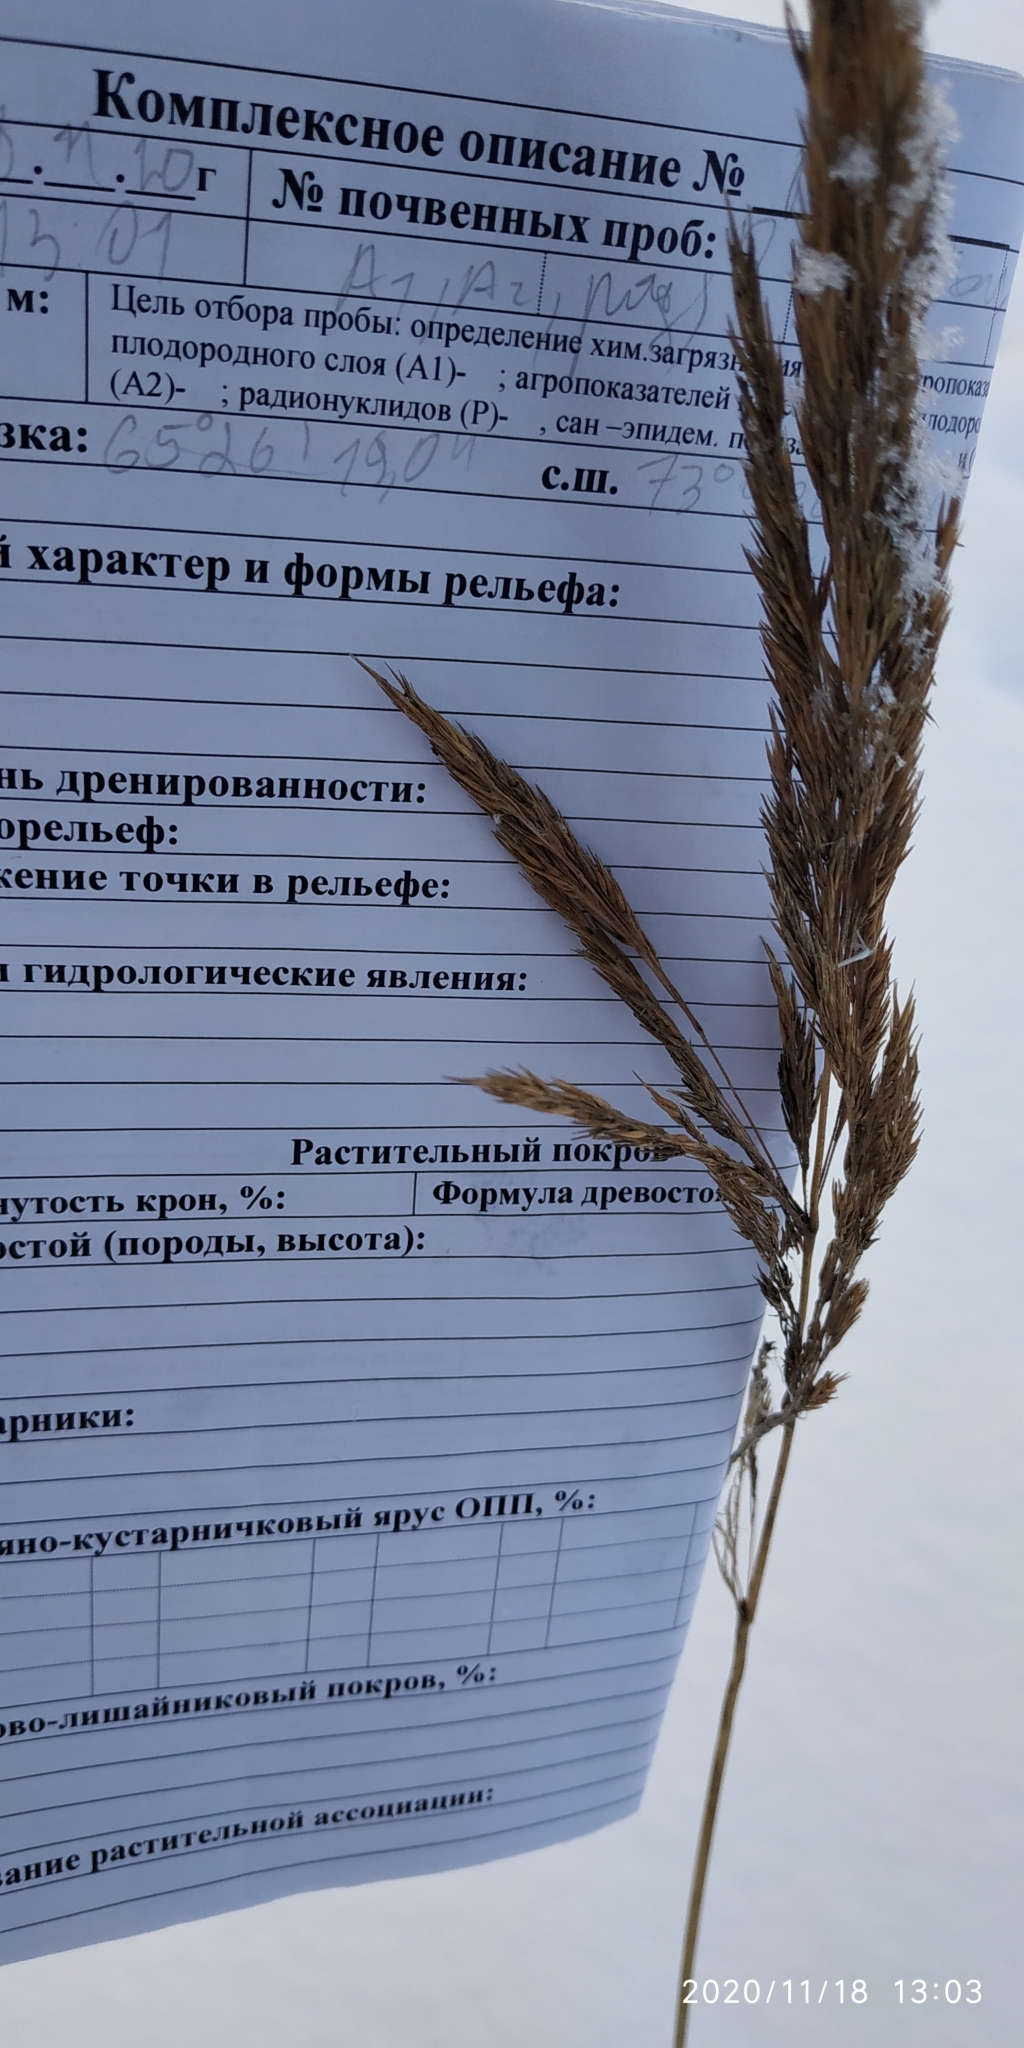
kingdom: Plantae
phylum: Tracheophyta
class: Liliopsida
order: Poales
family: Poaceae
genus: Calamagrostis
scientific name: Calamagrostis purpurea
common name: Scandinavian small-reed
